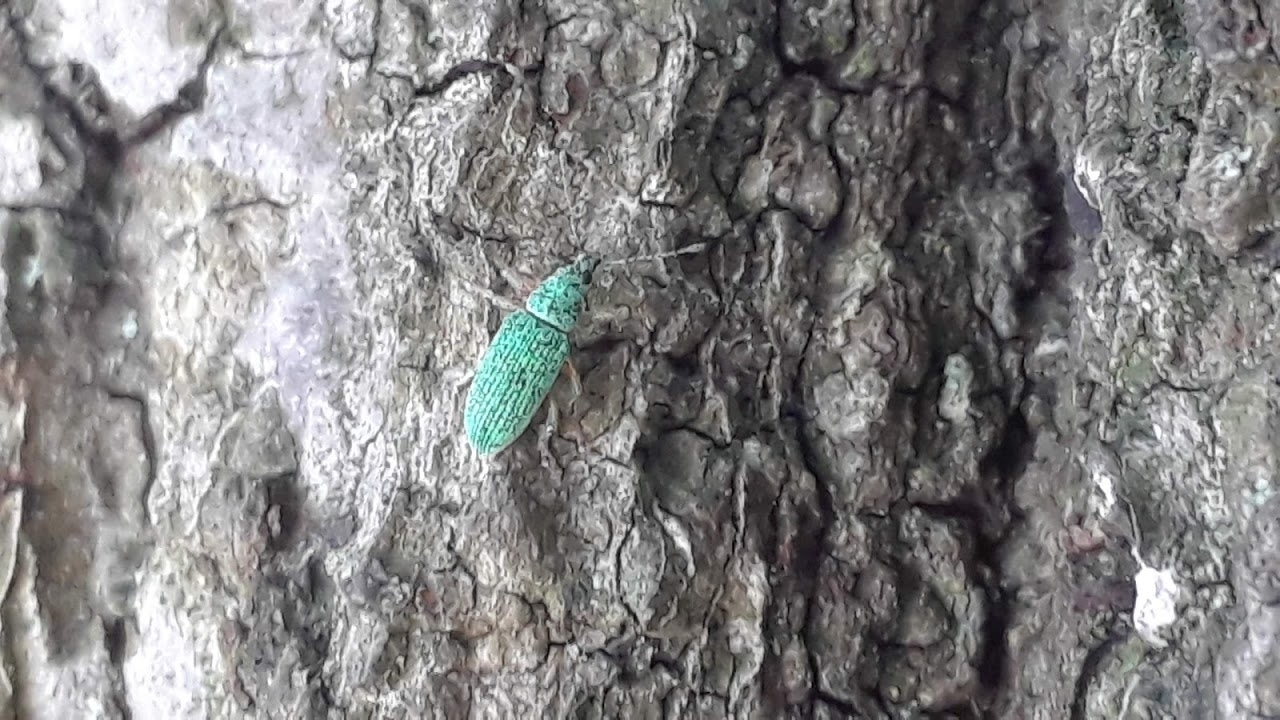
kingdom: Animalia
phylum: Arthropoda
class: Insecta
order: Coleoptera
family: Curculionidae
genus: Polydrusus
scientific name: Polydrusus formosus
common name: Weevil
